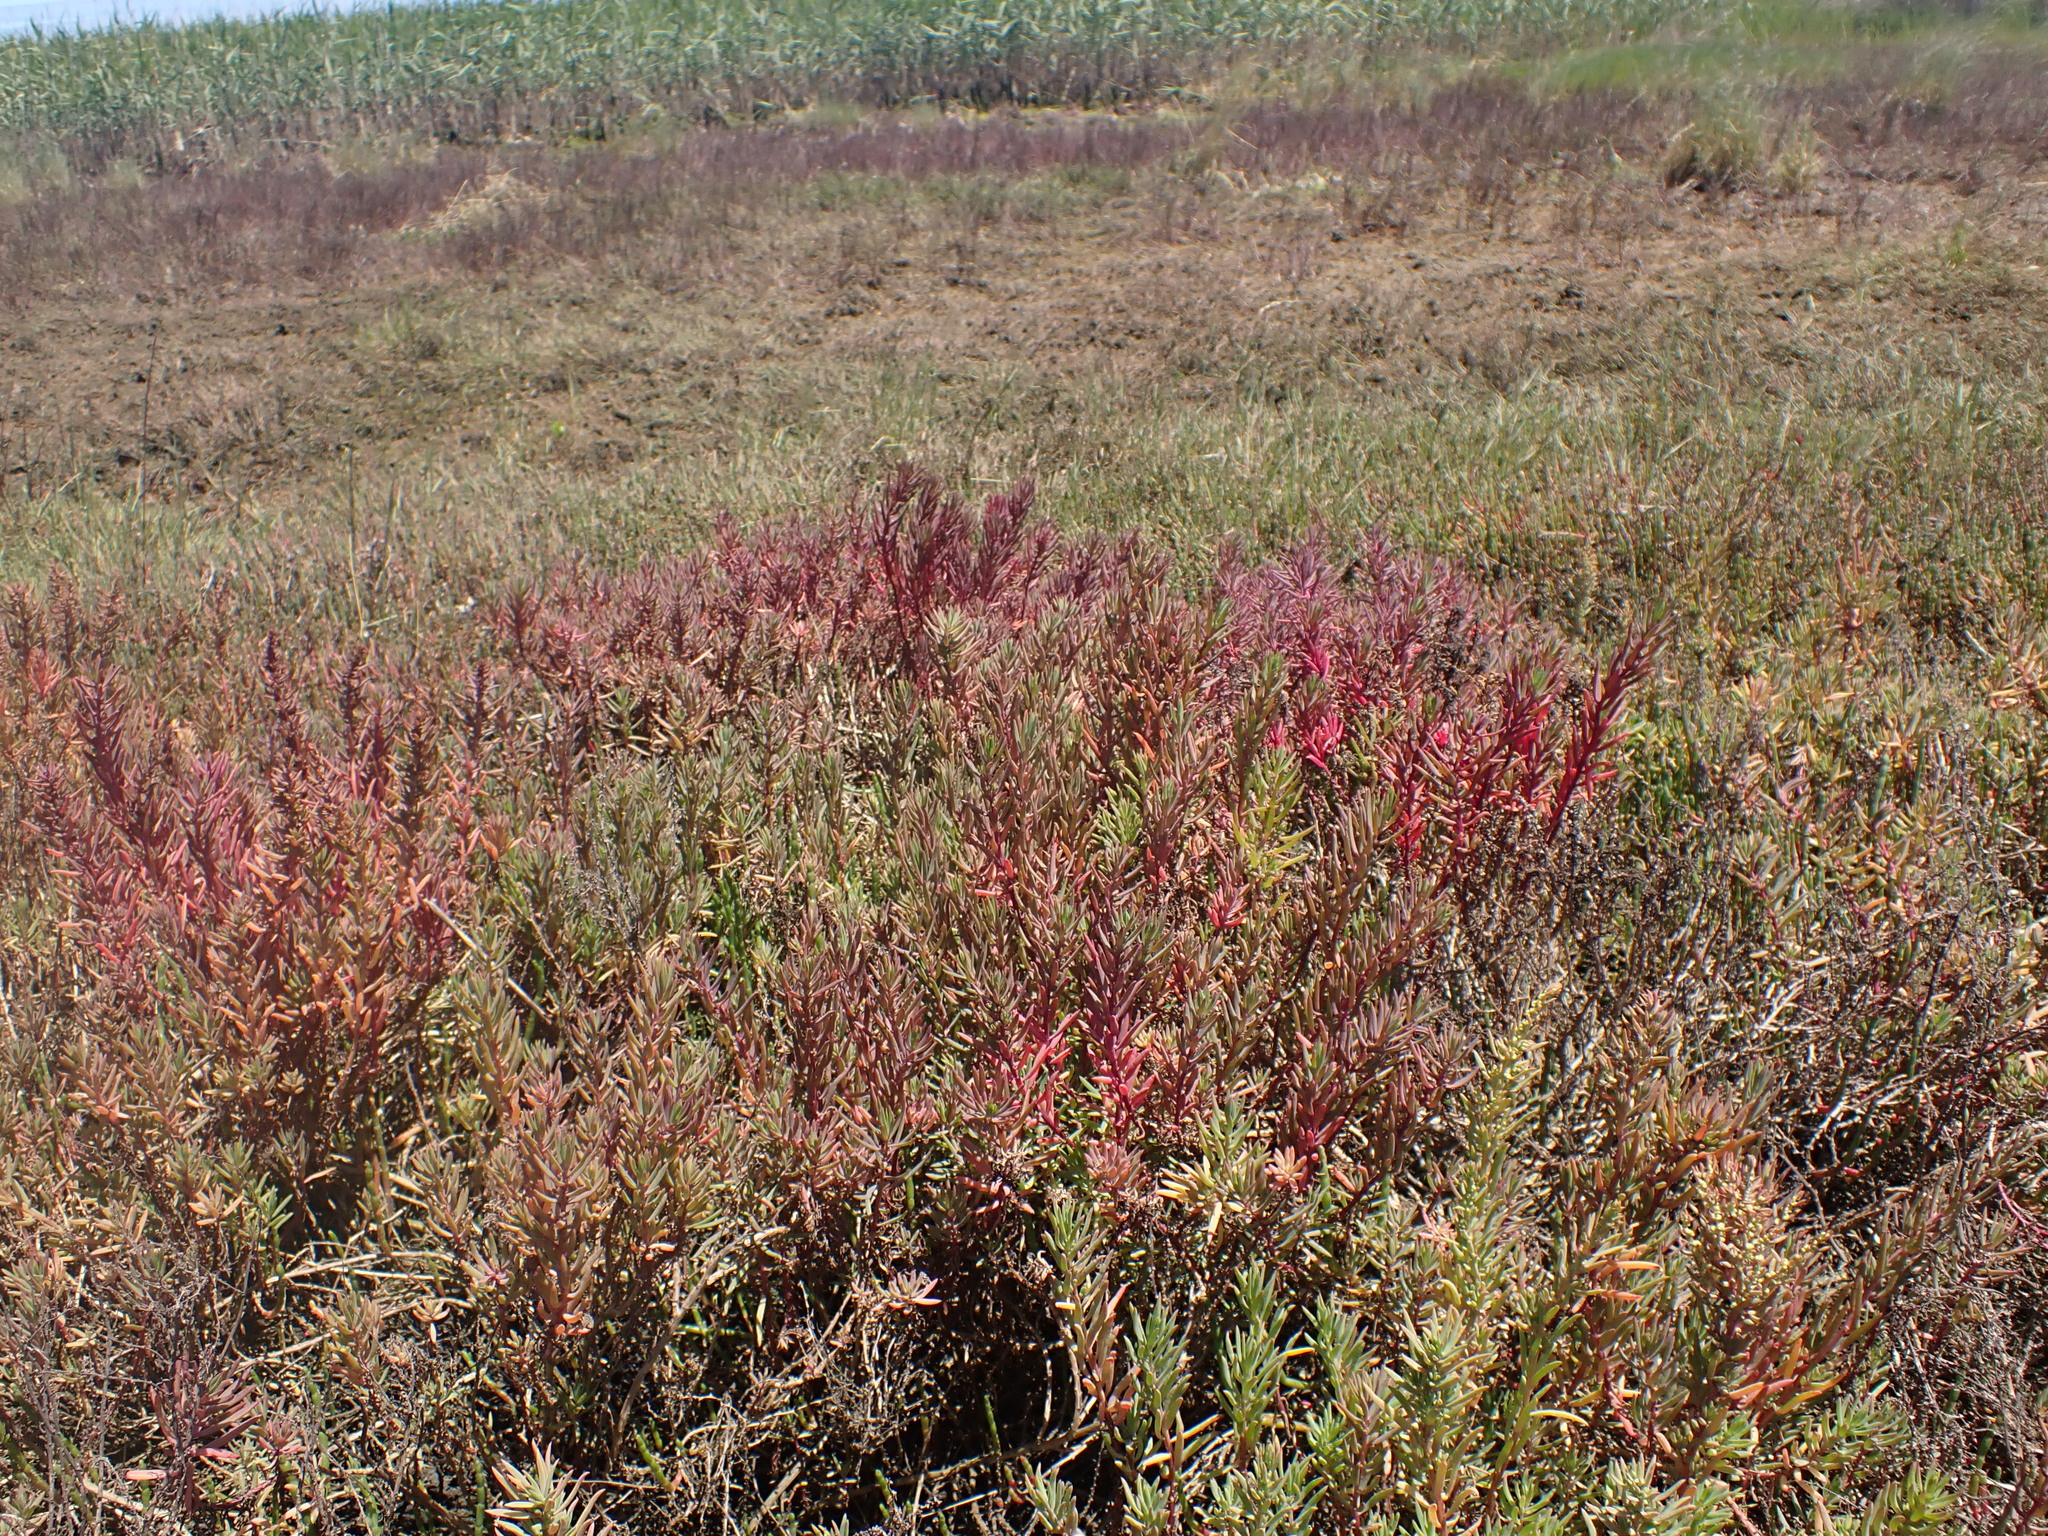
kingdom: Plantae
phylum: Tracheophyta
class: Magnoliopsida
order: Caryophyllales
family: Amaranthaceae
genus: Suaeda
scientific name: Suaeda australis
